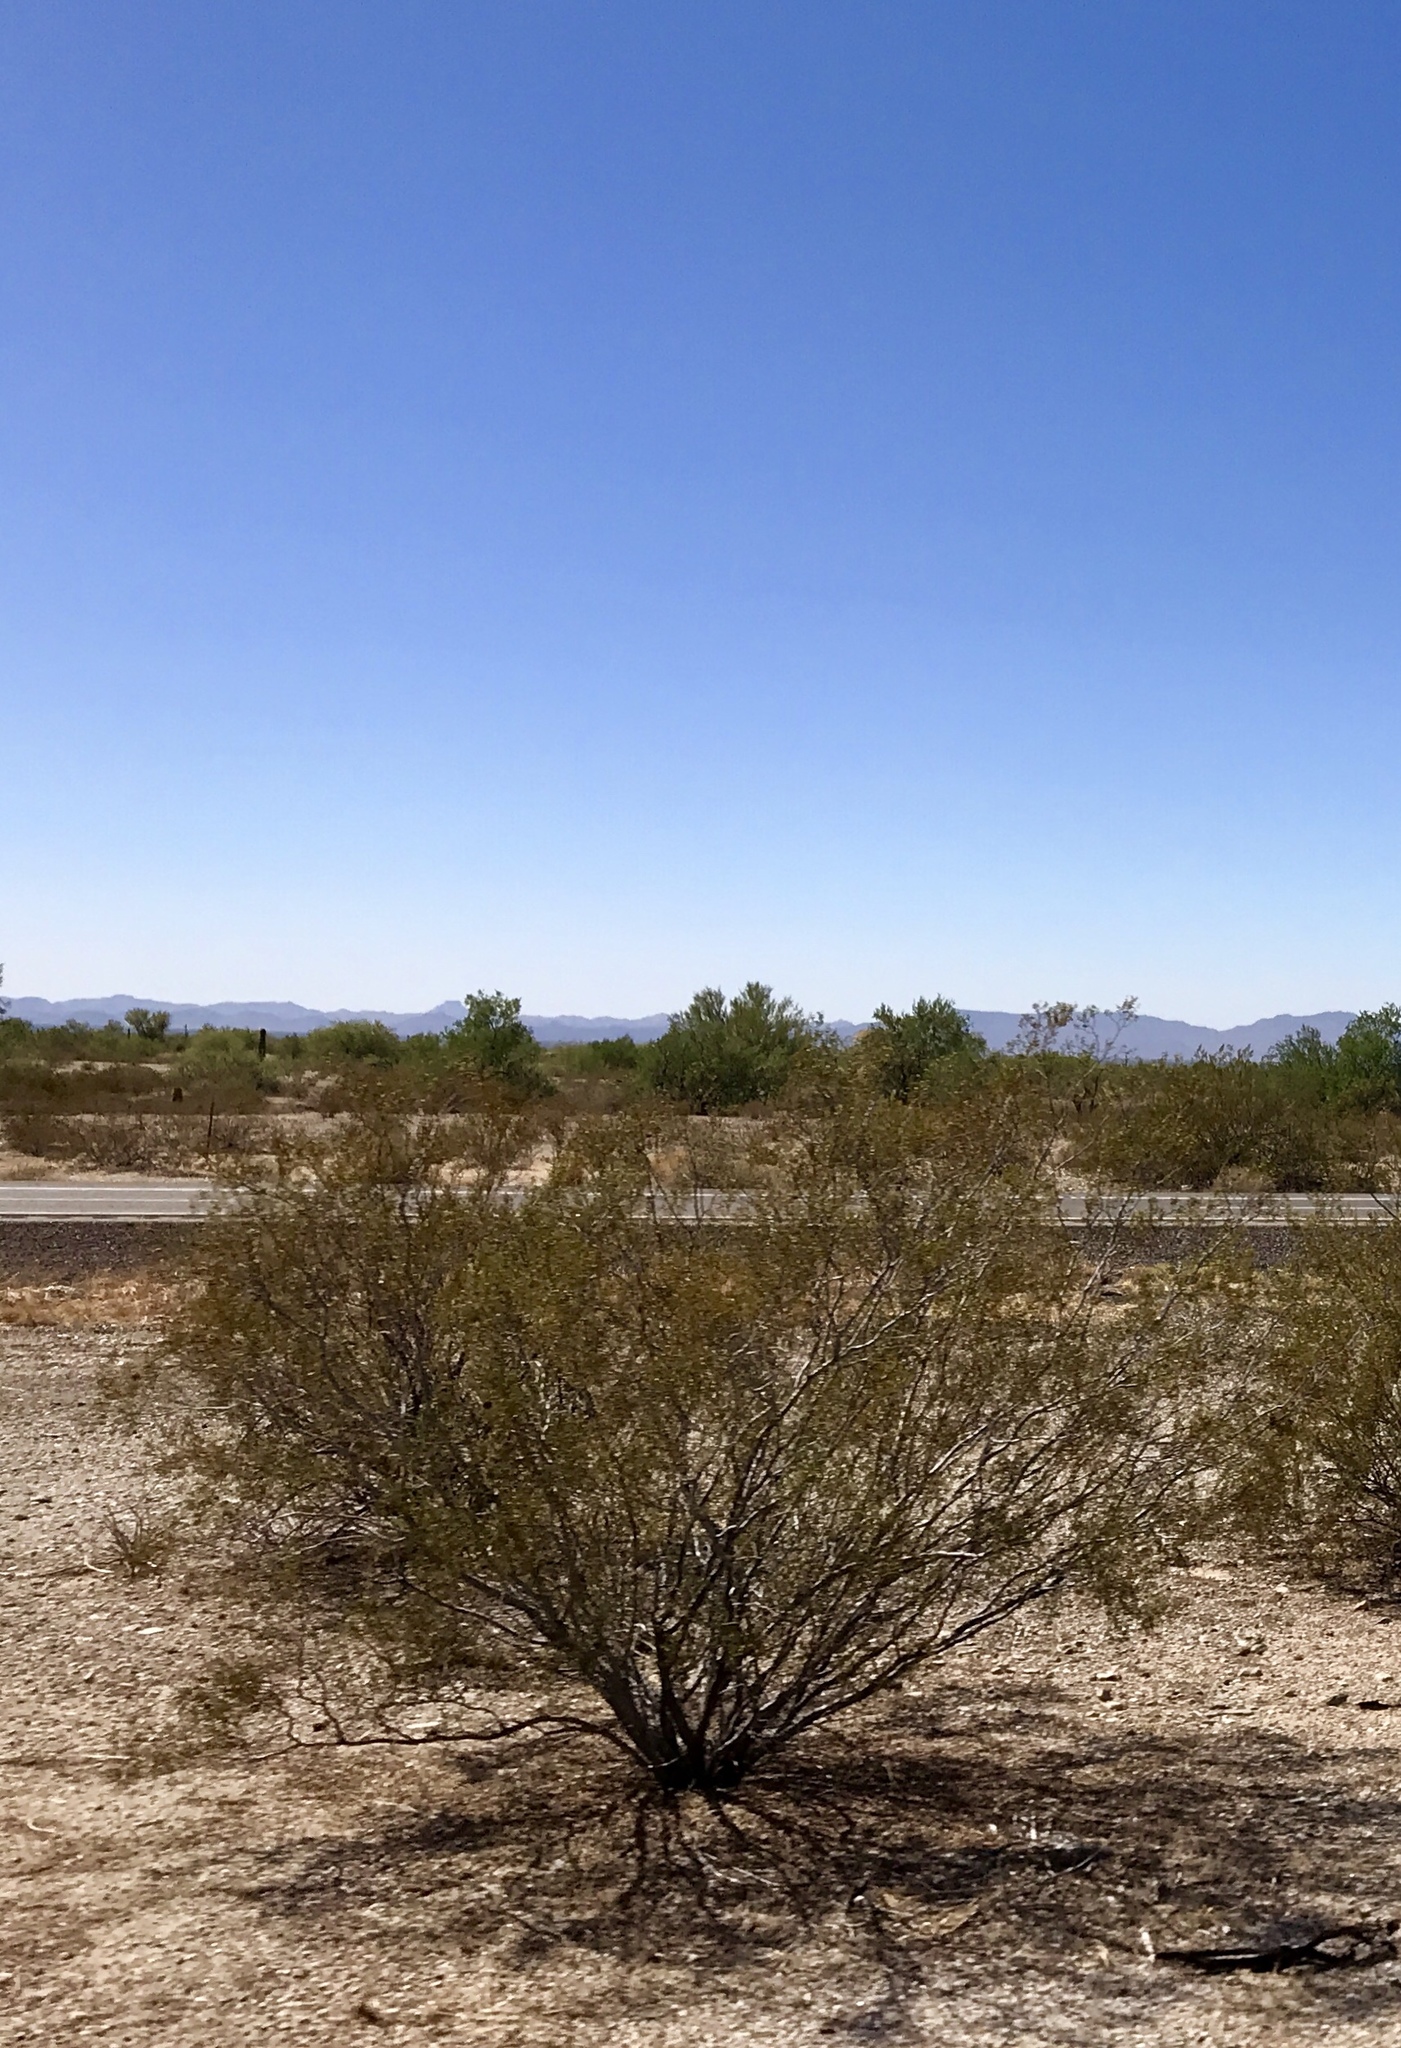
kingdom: Plantae
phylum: Tracheophyta
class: Magnoliopsida
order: Zygophyllales
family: Zygophyllaceae
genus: Larrea
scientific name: Larrea tridentata
